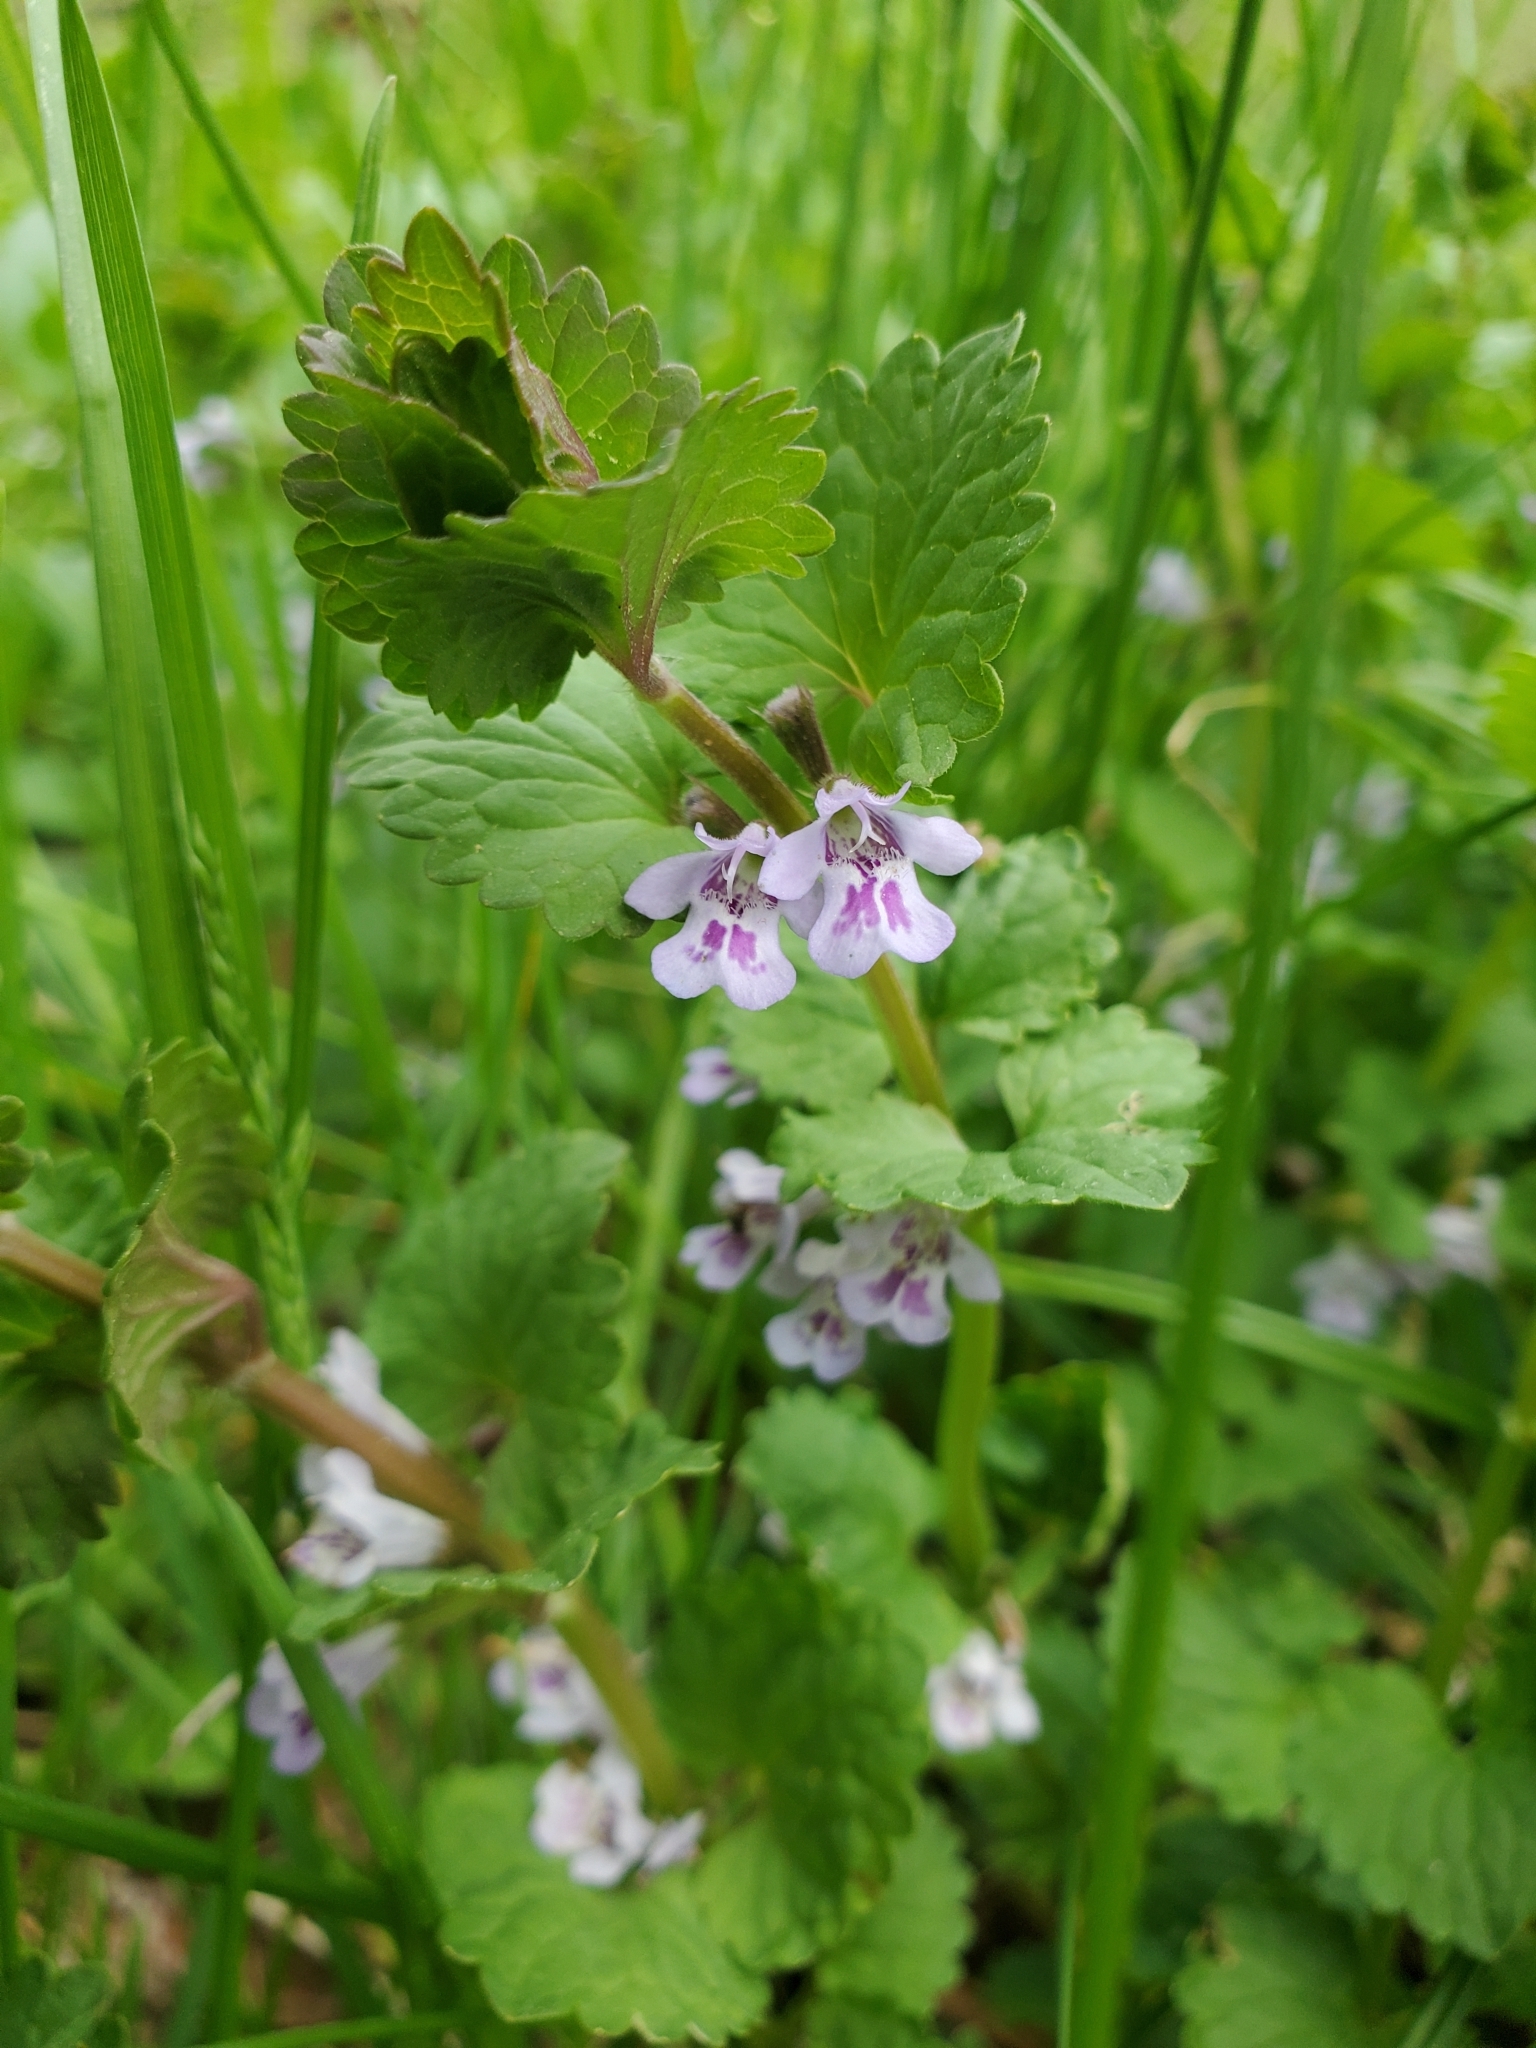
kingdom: Plantae
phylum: Tracheophyta
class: Magnoliopsida
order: Lamiales
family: Lamiaceae
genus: Glechoma
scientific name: Glechoma hederacea
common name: Ground ivy
